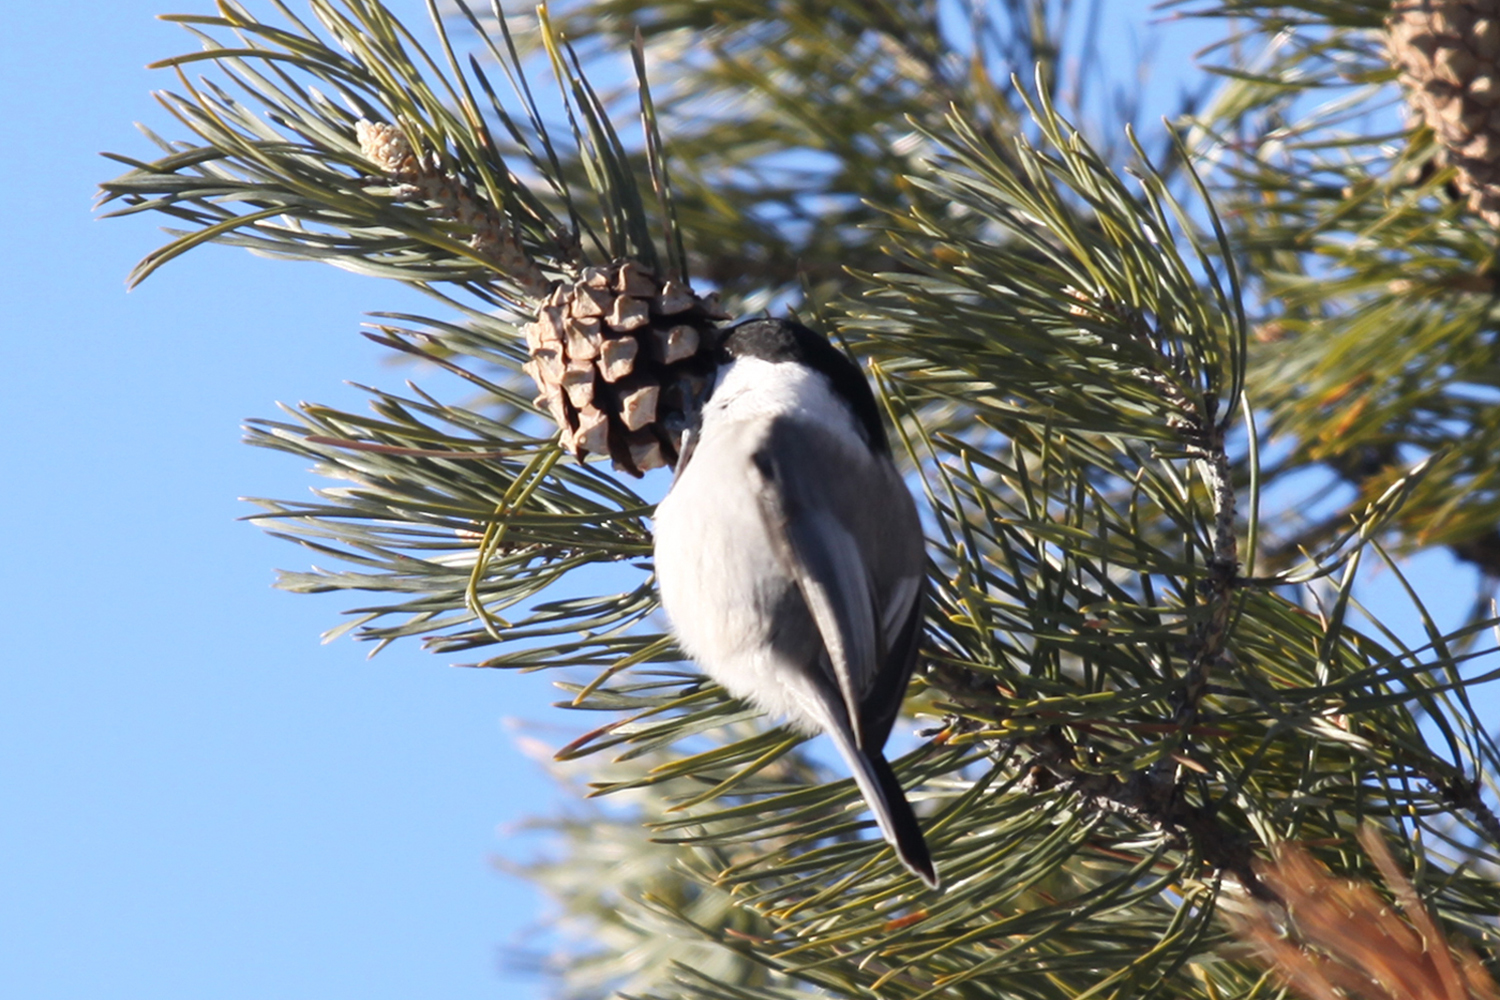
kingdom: Animalia
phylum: Chordata
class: Aves
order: Passeriformes
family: Paridae
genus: Poecile
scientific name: Poecile montanus
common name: Willow tit
